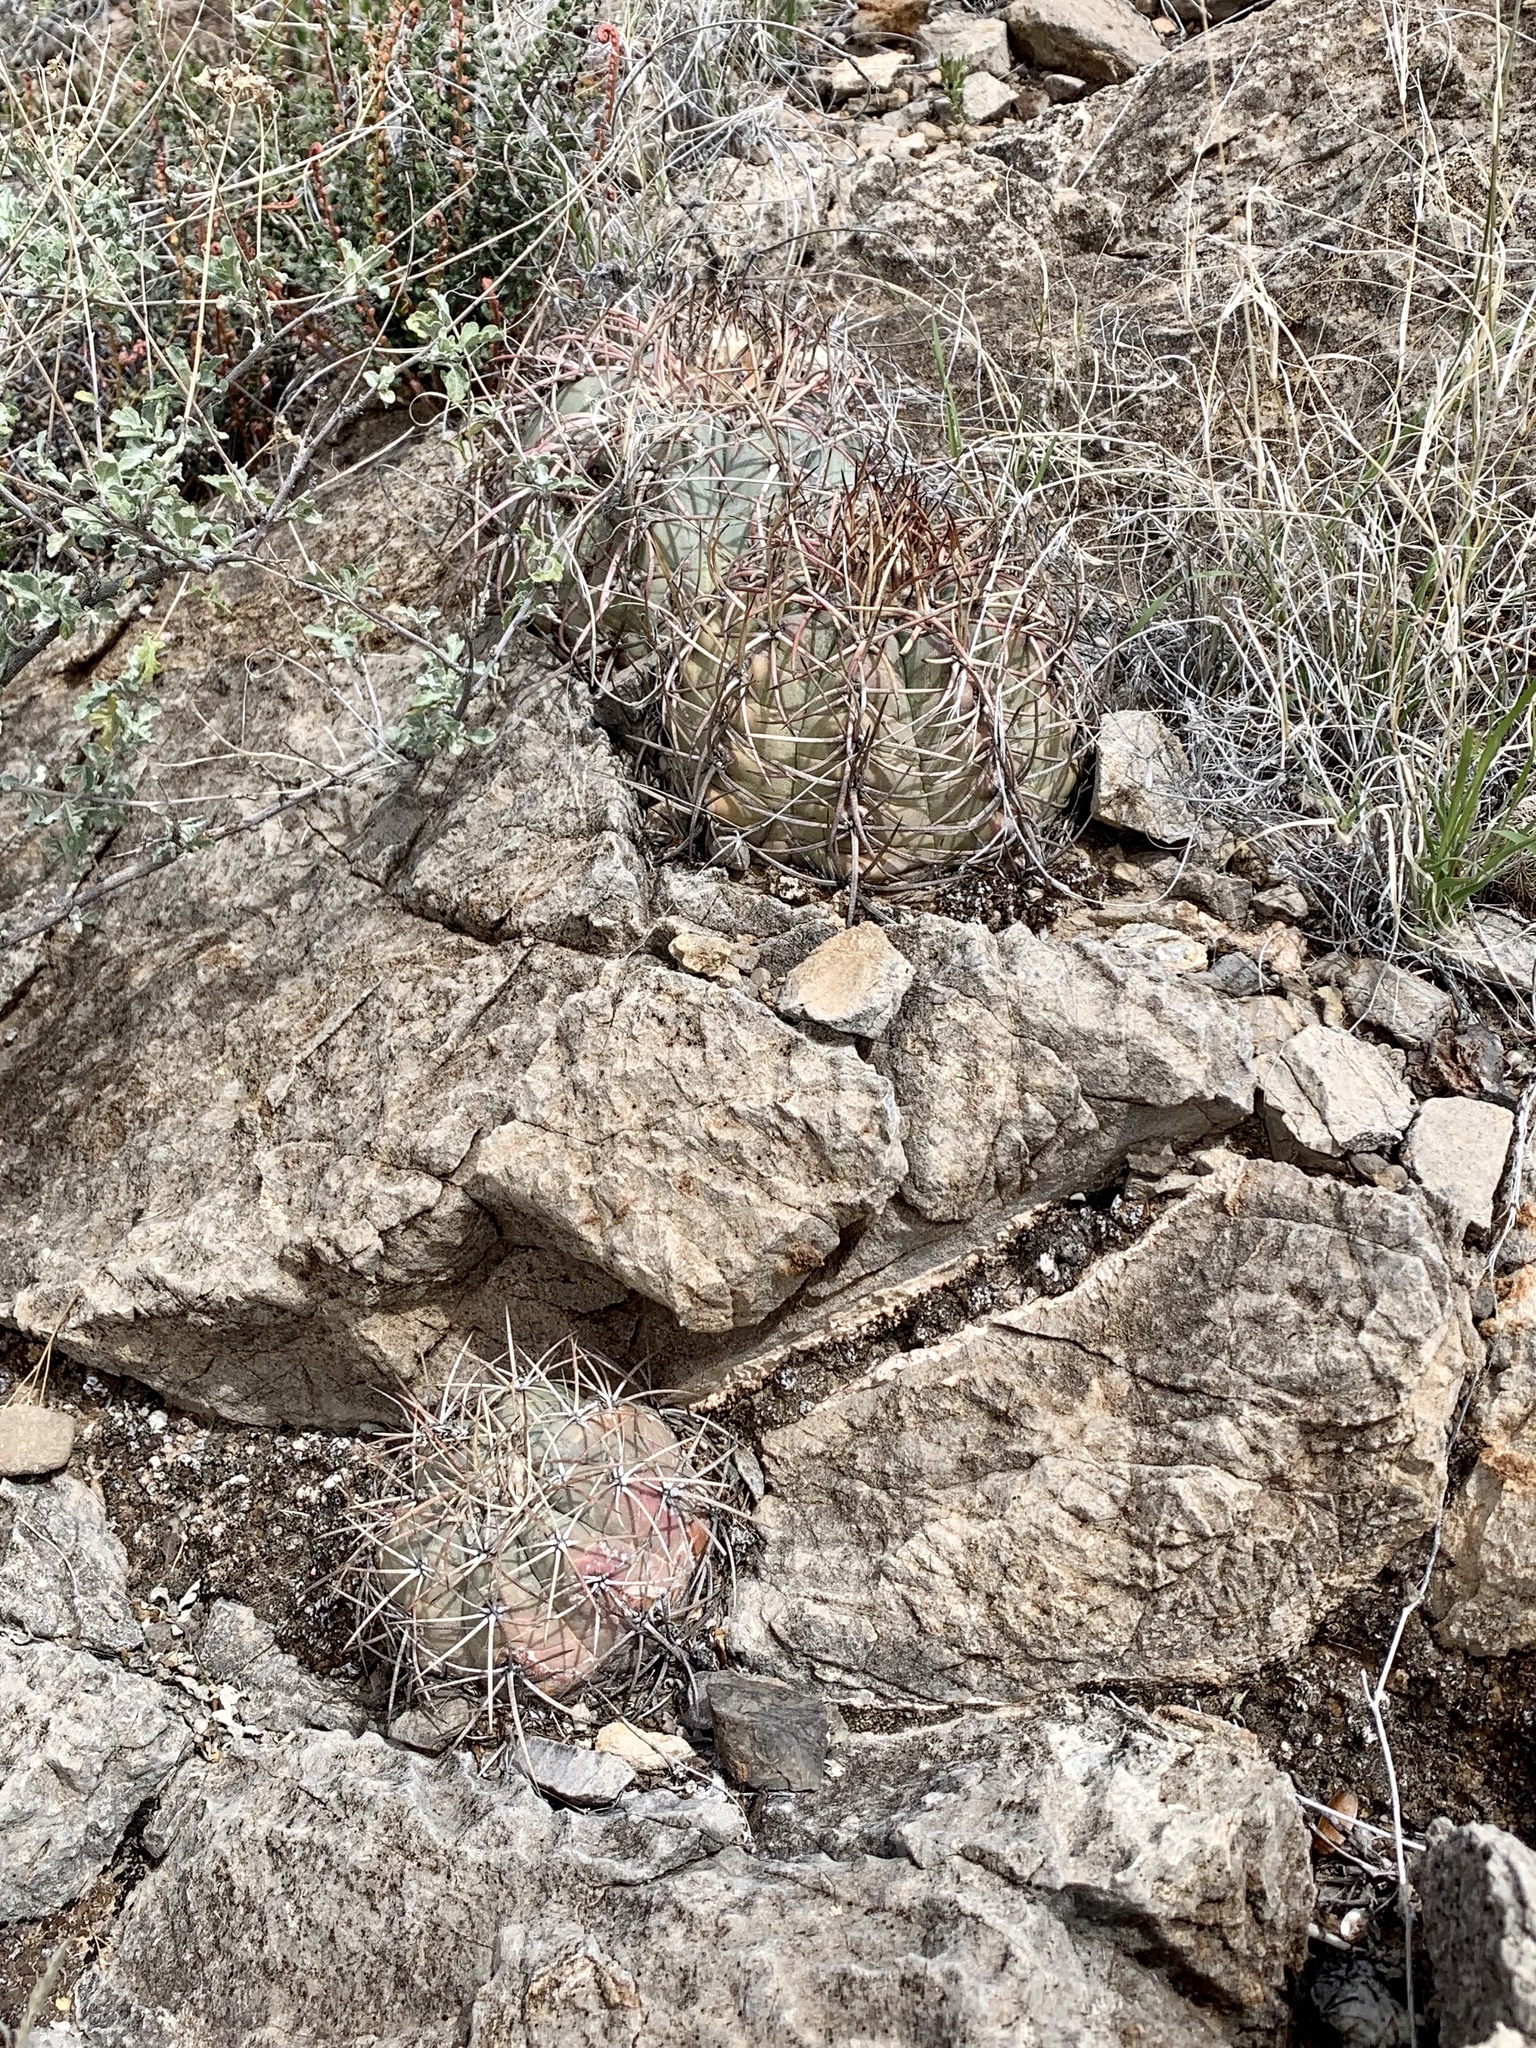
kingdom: Plantae
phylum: Tracheophyta
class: Magnoliopsida
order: Caryophyllales
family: Cactaceae
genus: Echinocactus
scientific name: Echinocactus horizonthalonius
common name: Devilshead
